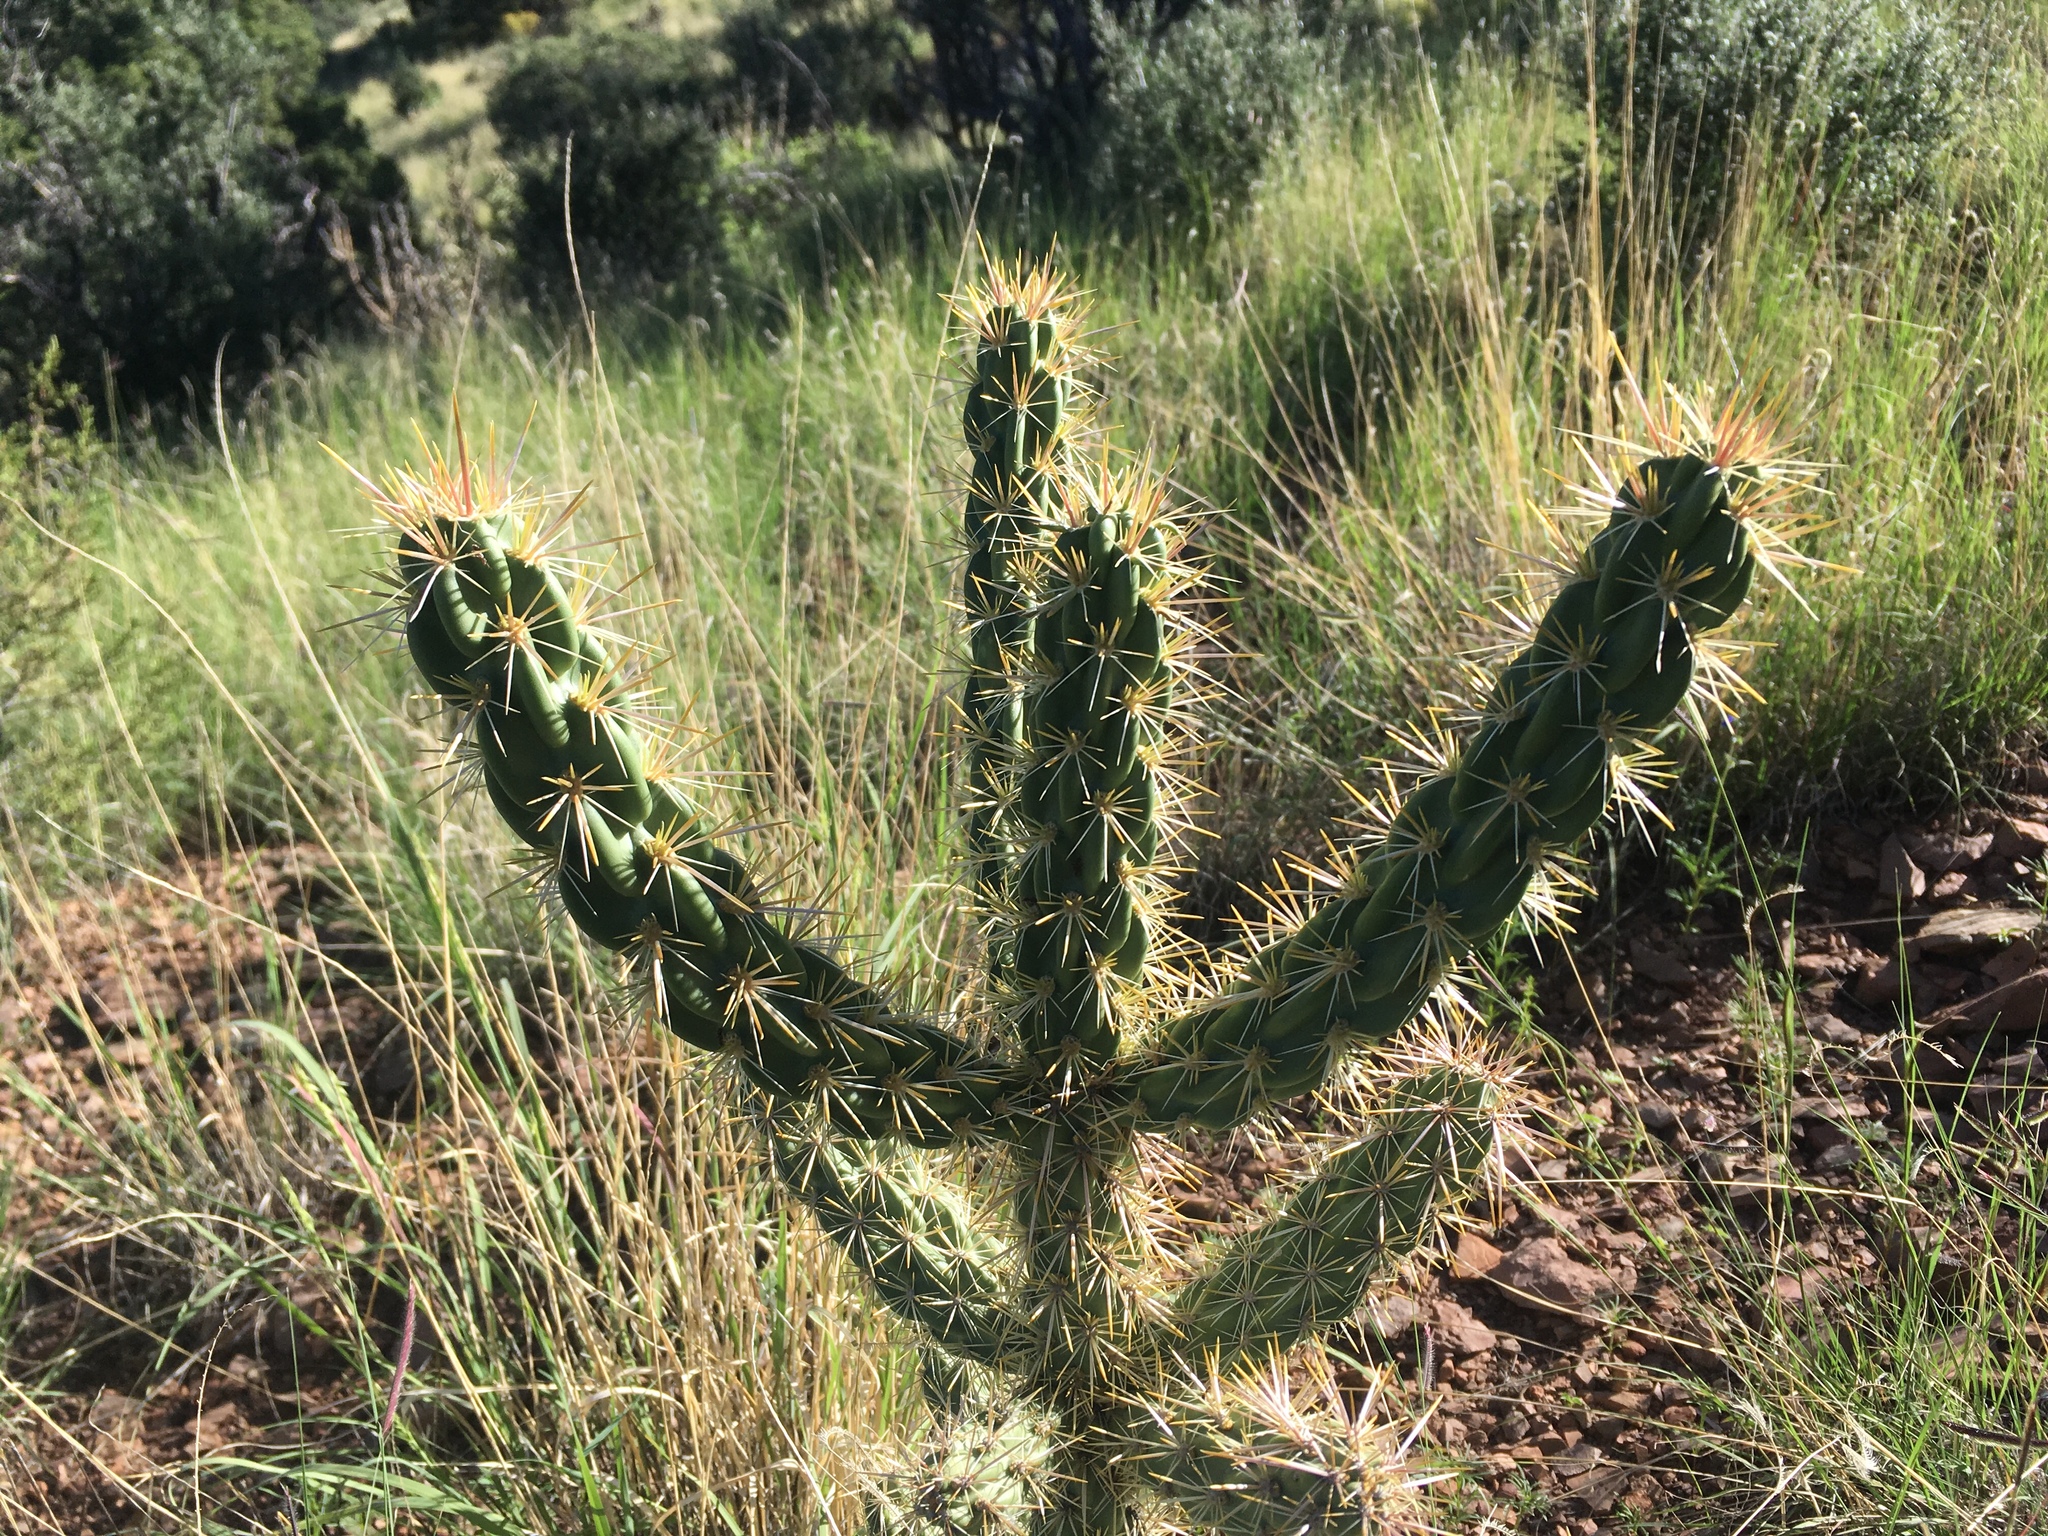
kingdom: Plantae
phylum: Tracheophyta
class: Magnoliopsida
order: Caryophyllales
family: Cactaceae
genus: Cylindropuntia
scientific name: Cylindropuntia imbricata
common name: Candelabrum cactus
